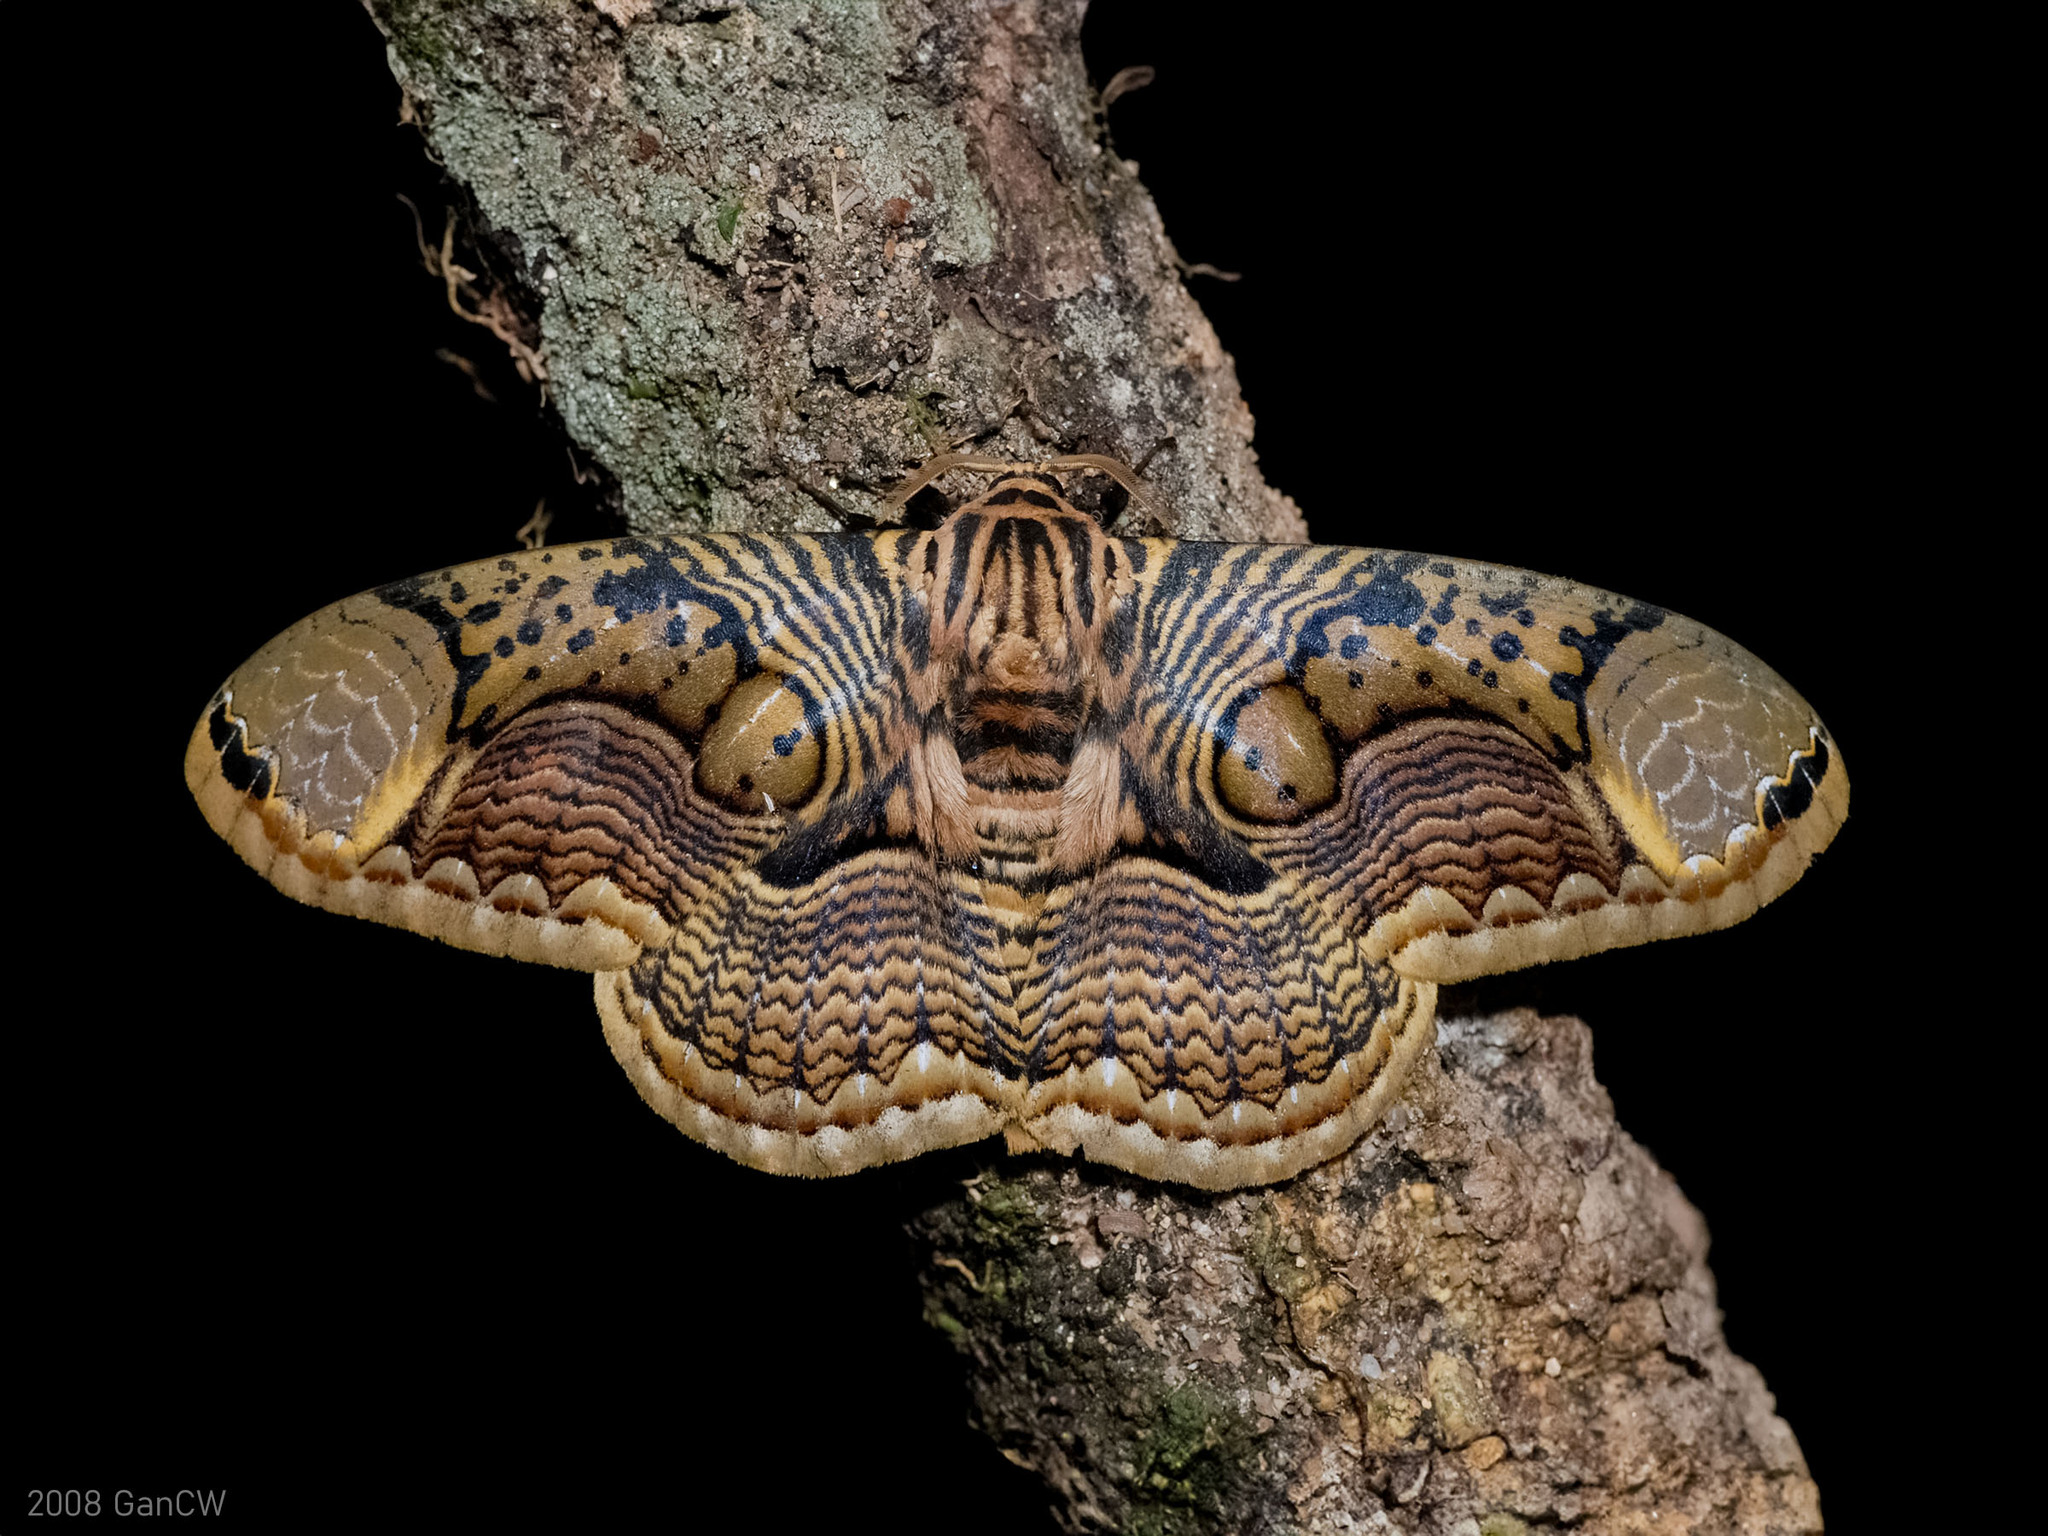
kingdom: Animalia
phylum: Arthropoda
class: Insecta
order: Lepidoptera
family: Brahmaeidae
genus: Brahmaea
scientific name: Brahmaea hearseyi
